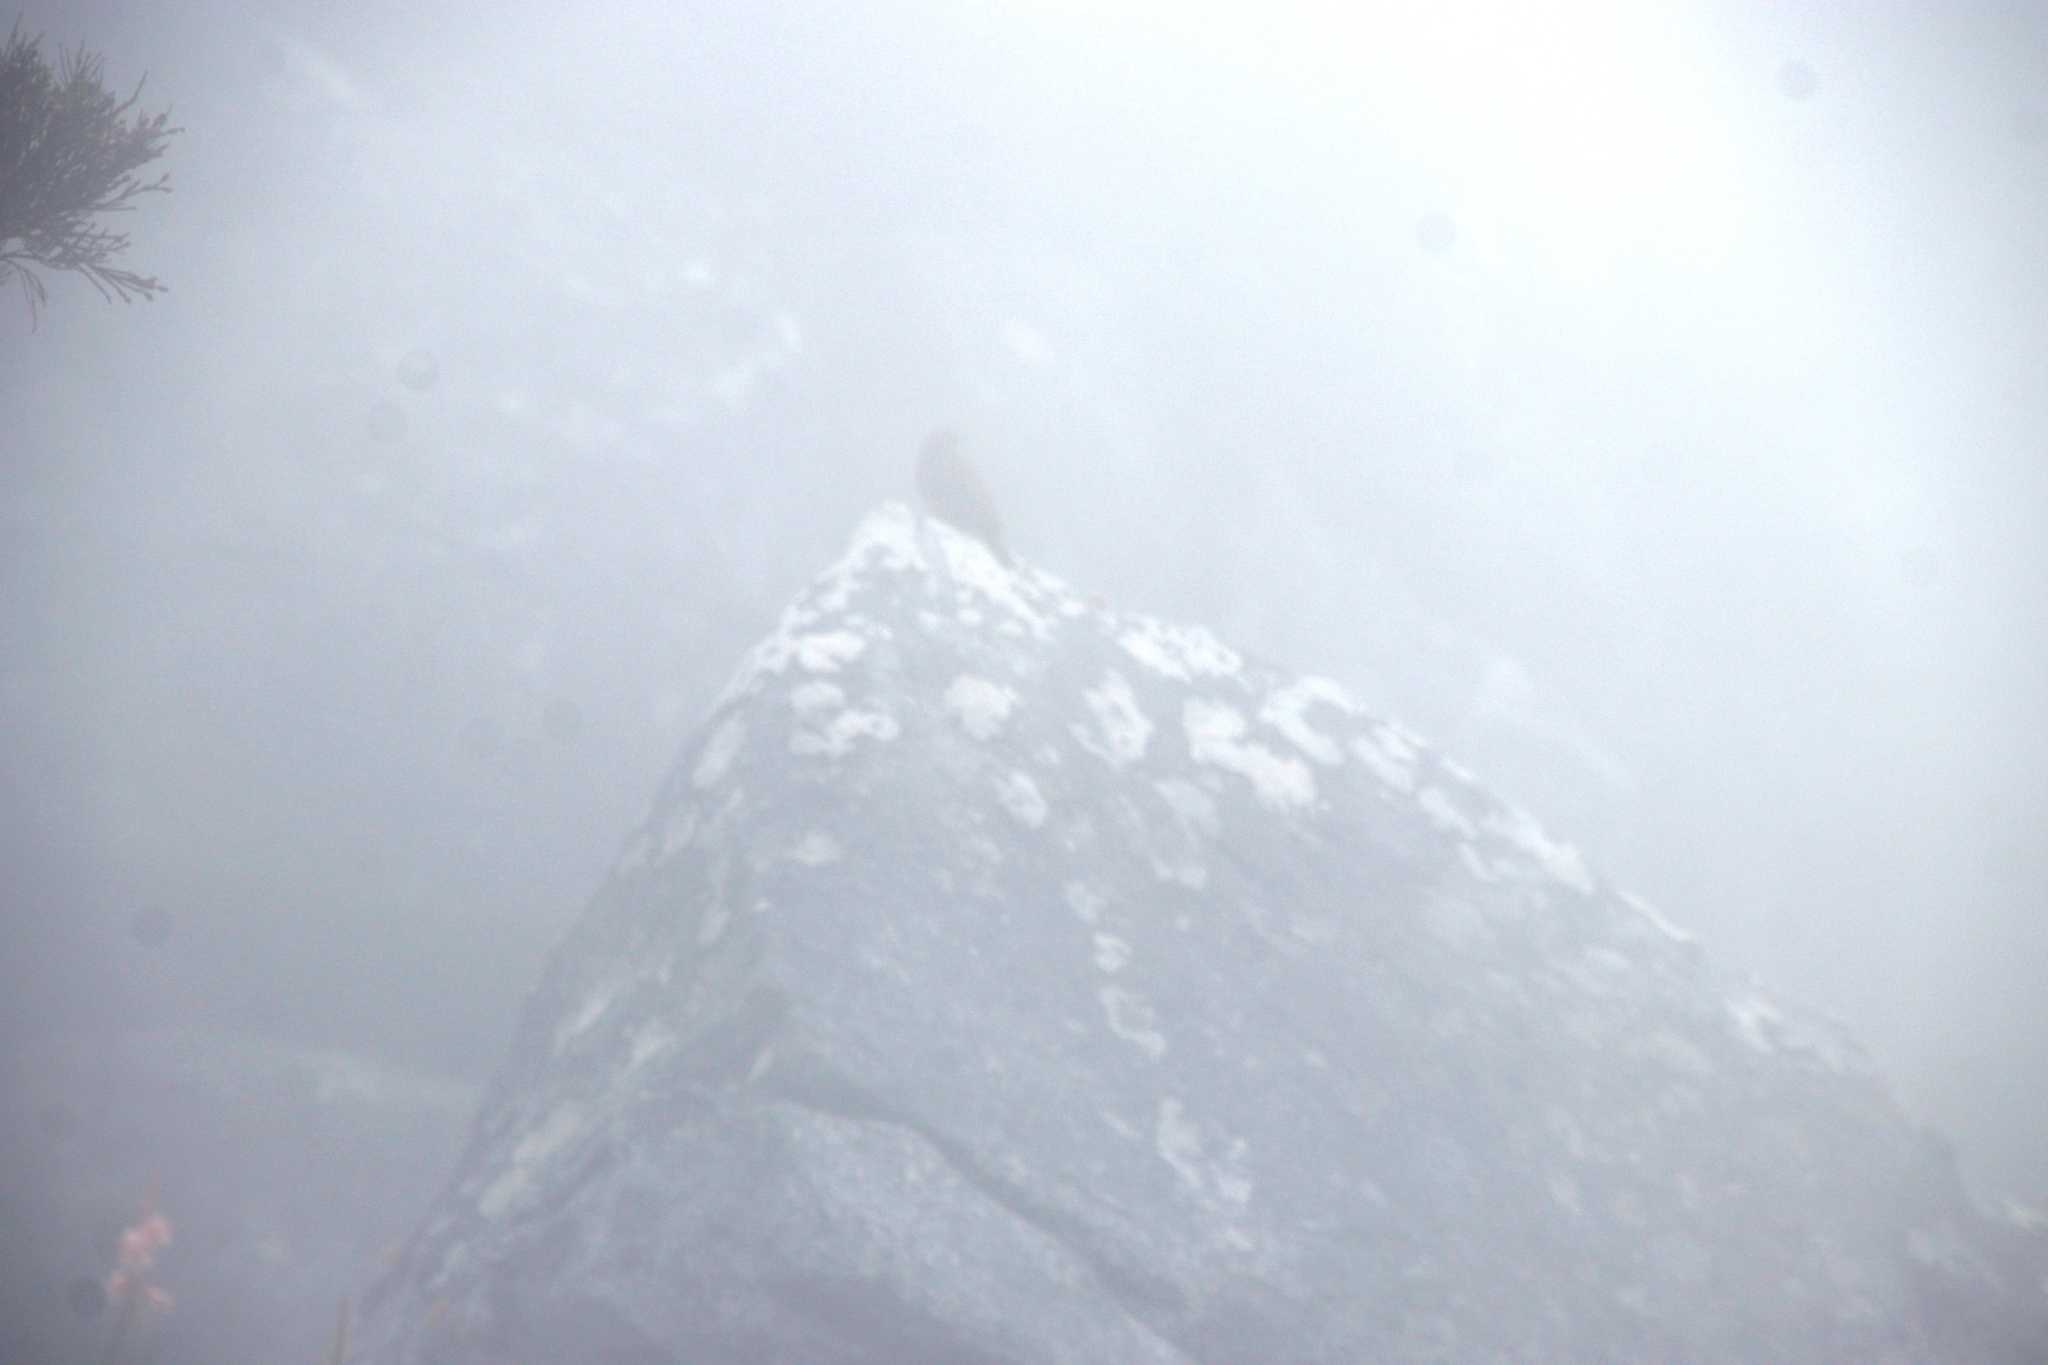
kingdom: Animalia
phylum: Chordata
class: Aves
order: Piciformes
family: Picidae
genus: Geocolaptes
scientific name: Geocolaptes olivaceus
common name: Ground woodpecker
